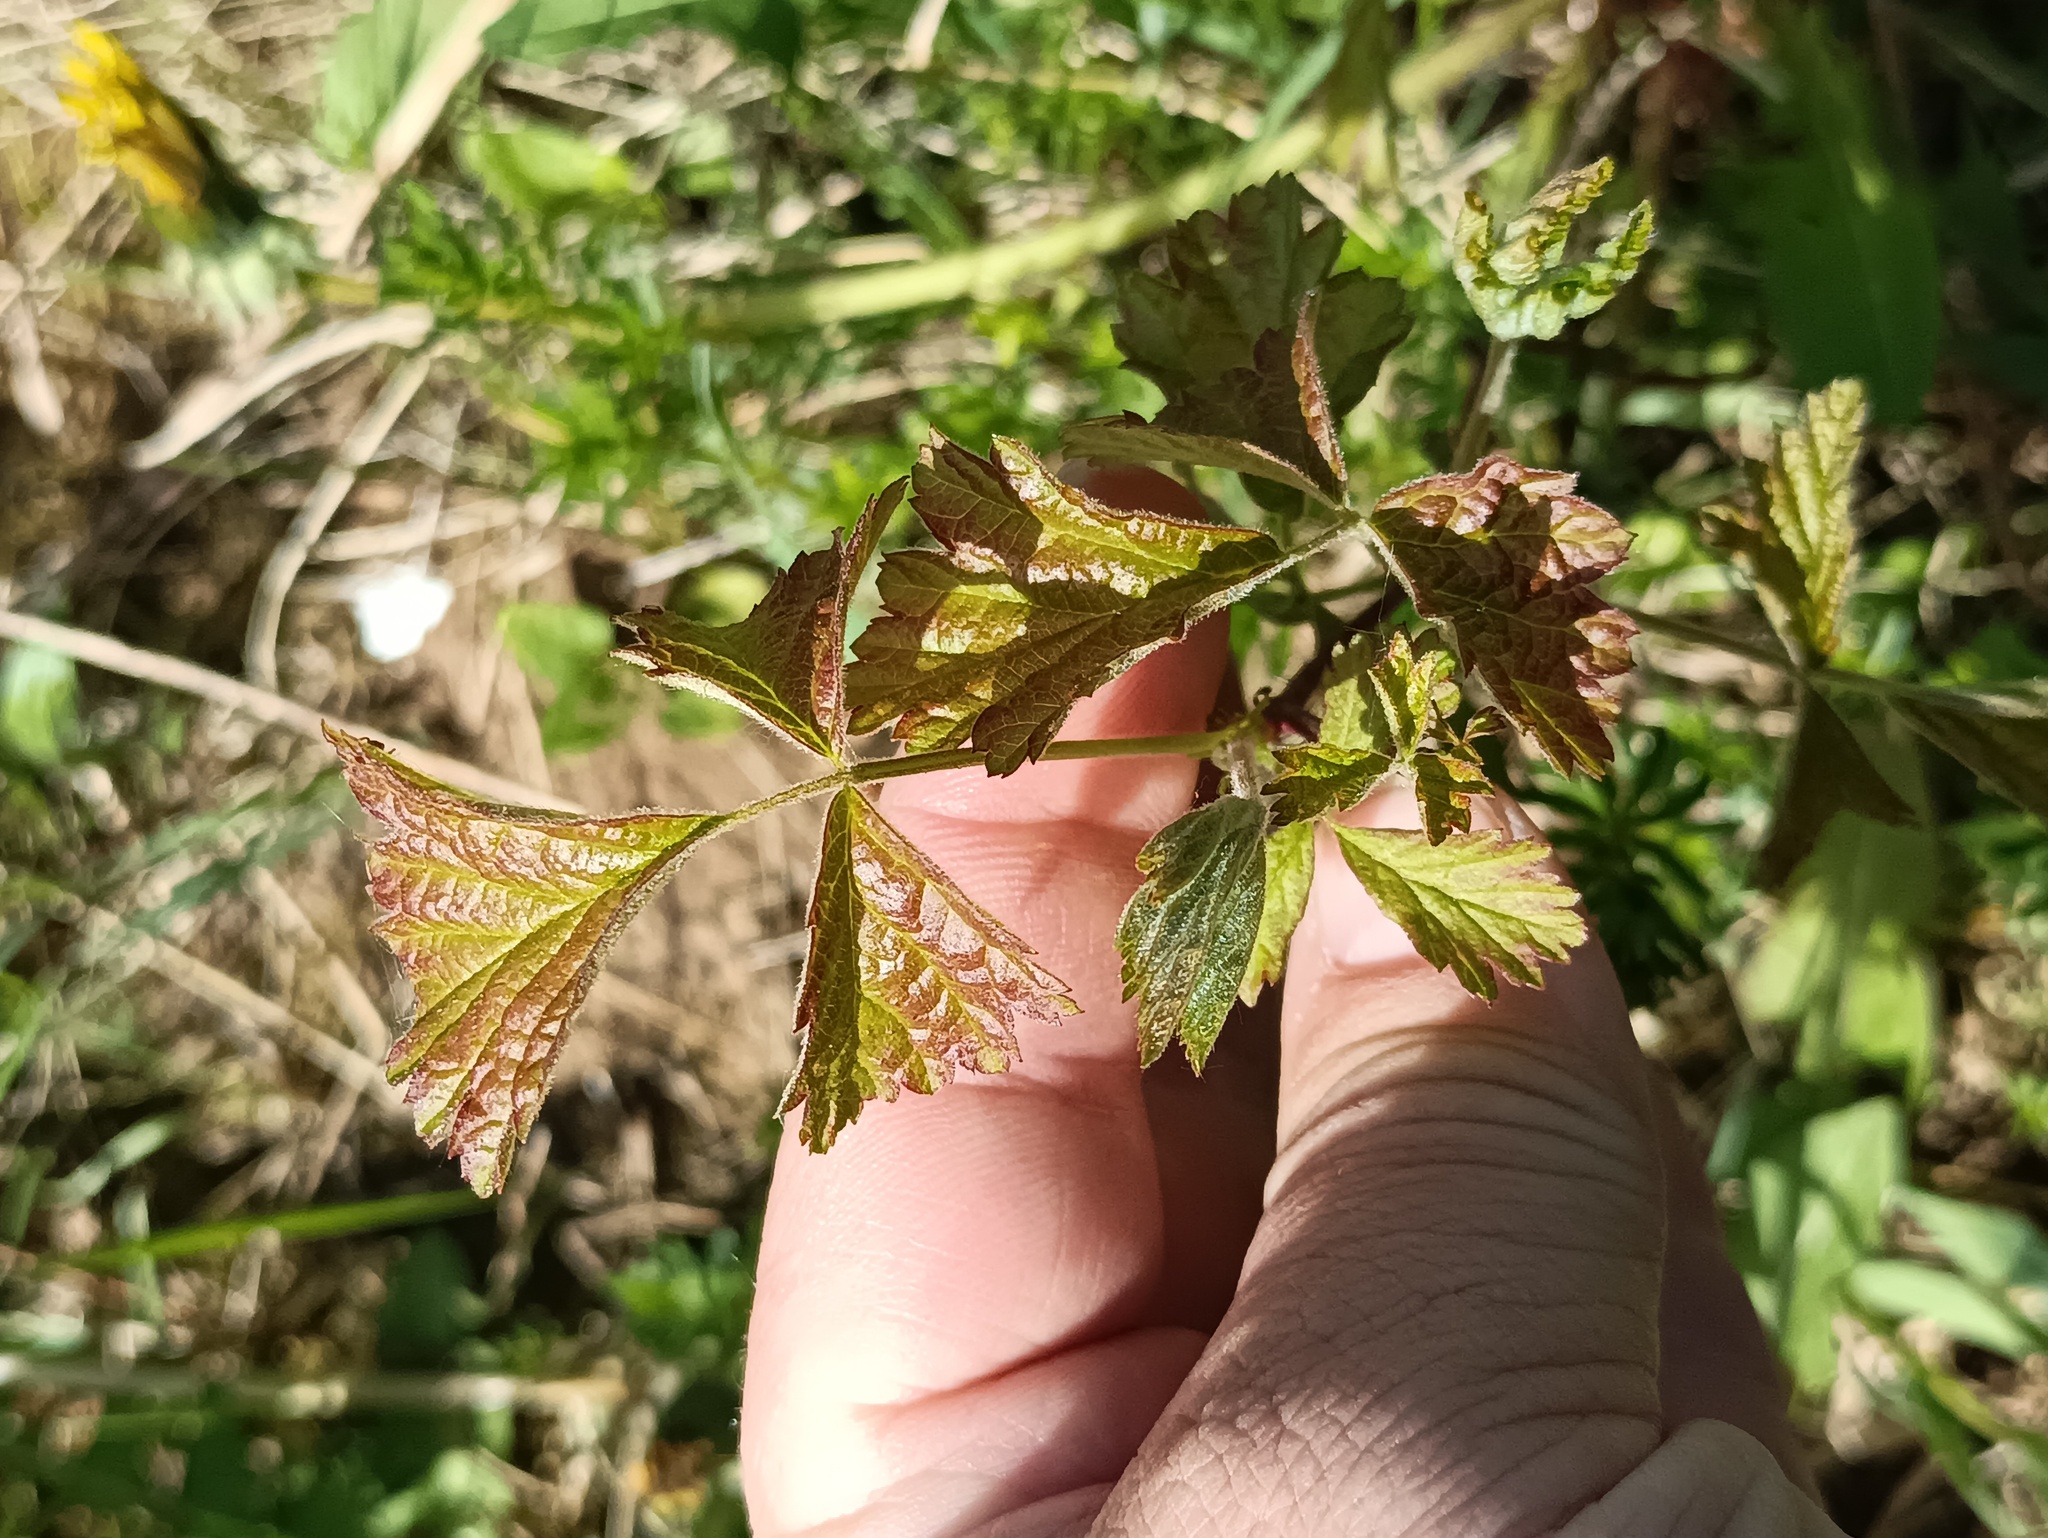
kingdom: Plantae
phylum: Tracheophyta
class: Magnoliopsida
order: Rosales
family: Rosaceae
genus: Rubus
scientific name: Rubus caesius
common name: Dewberry
